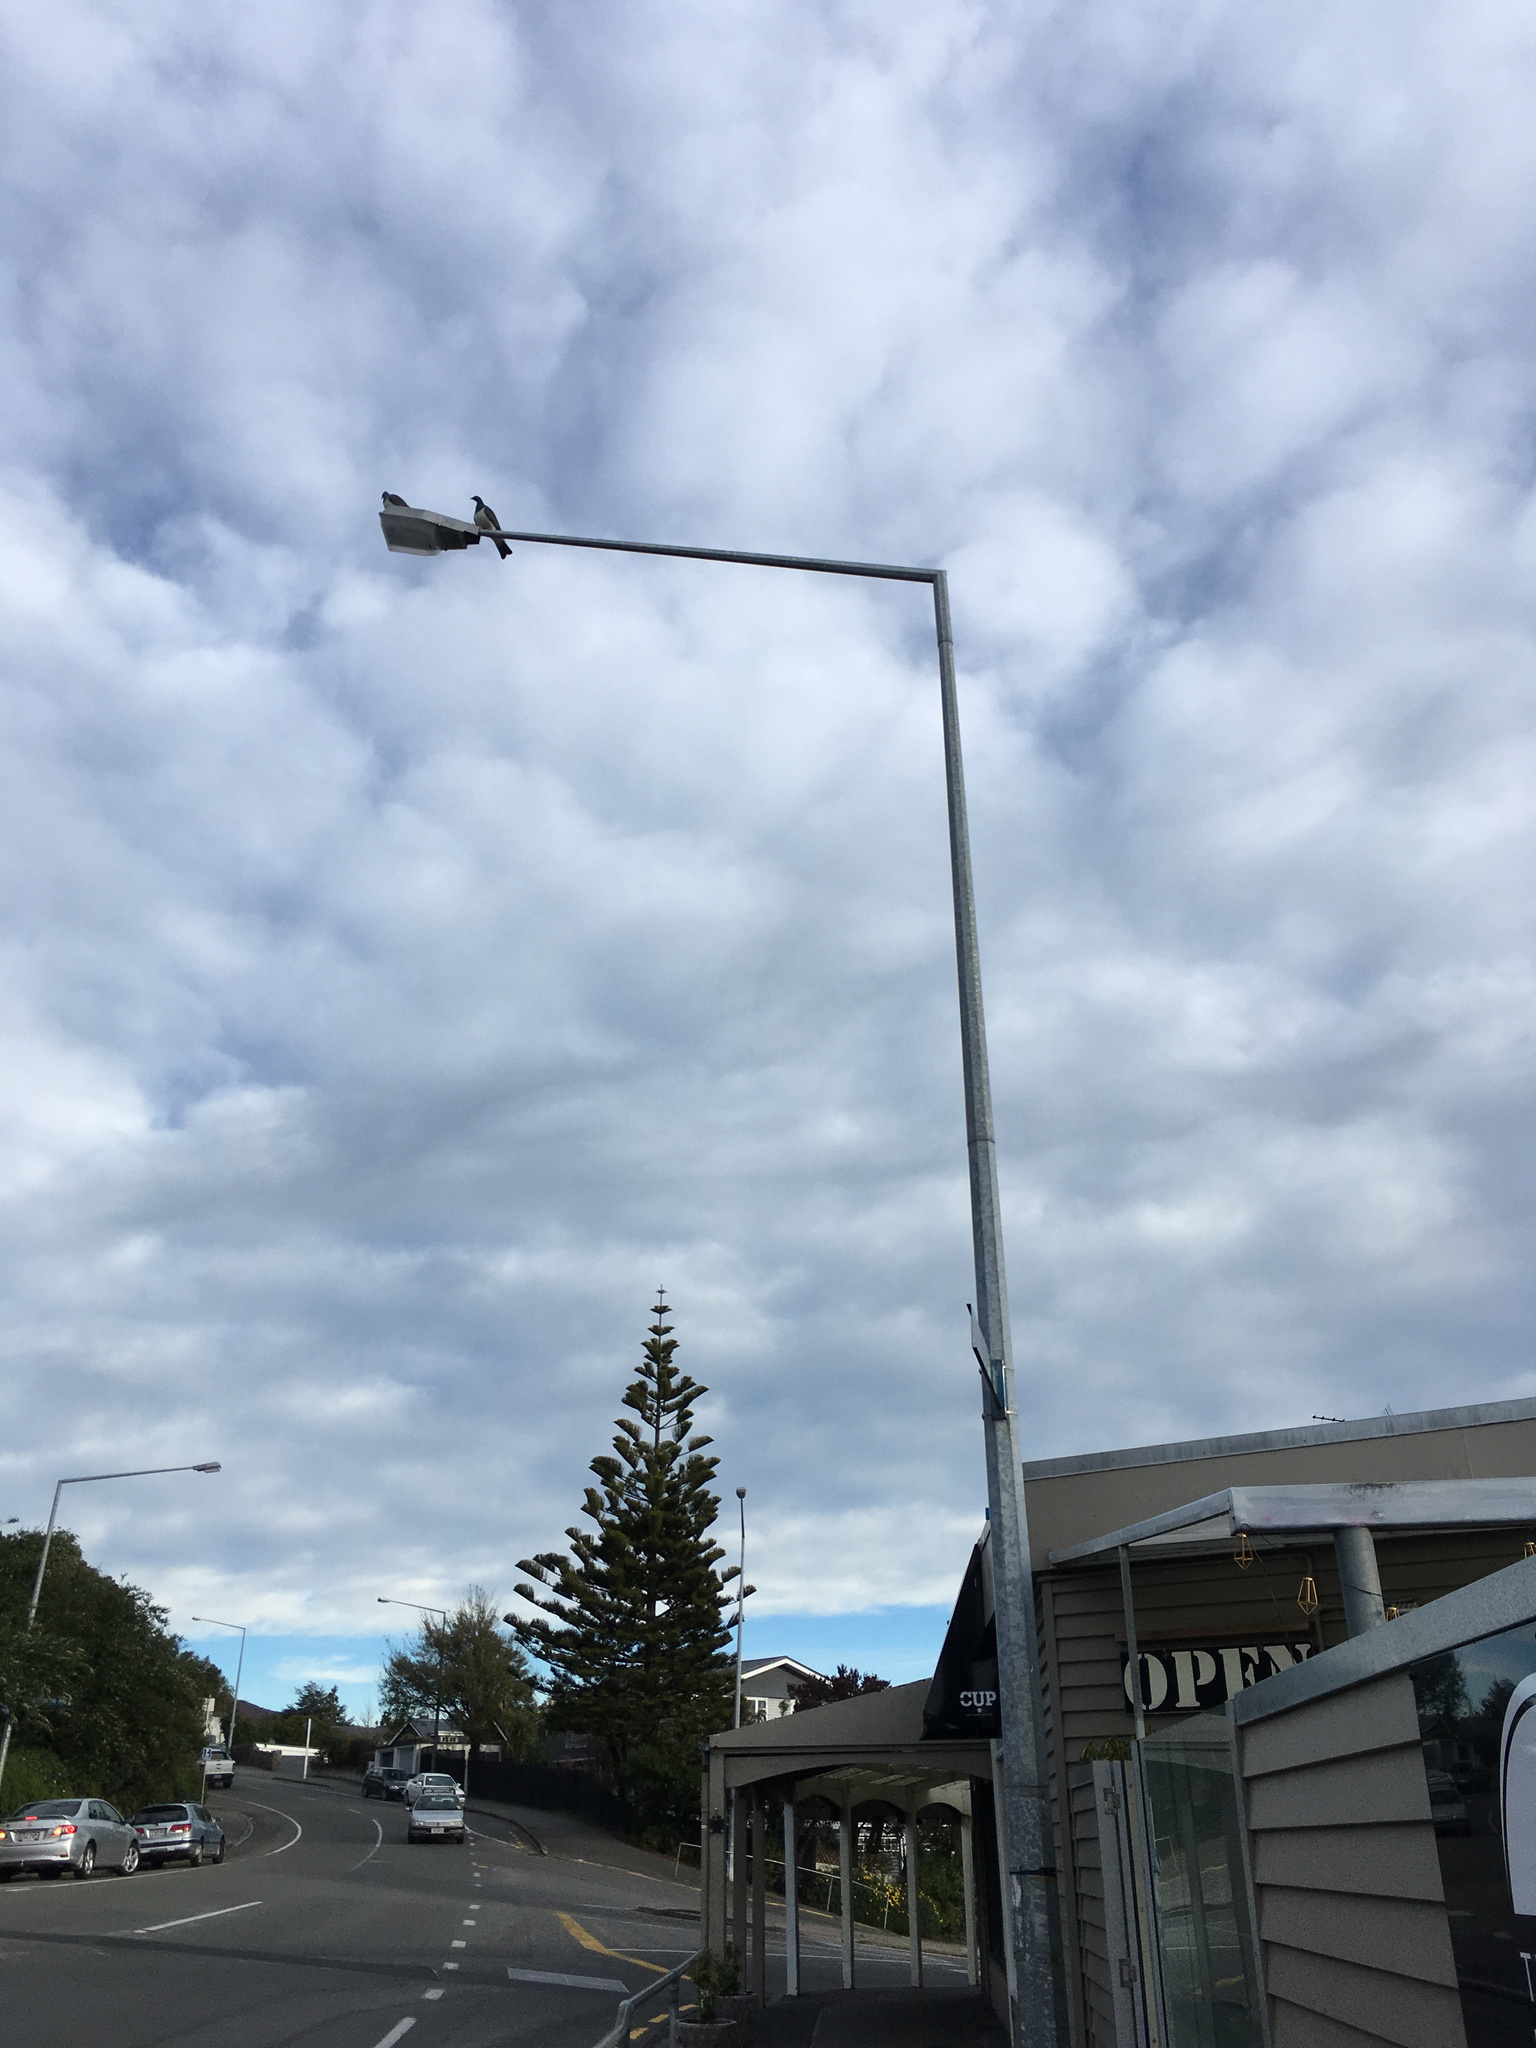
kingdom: Animalia
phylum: Chordata
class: Aves
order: Columbiformes
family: Columbidae
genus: Hemiphaga
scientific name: Hemiphaga novaeseelandiae
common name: New zealand pigeon
